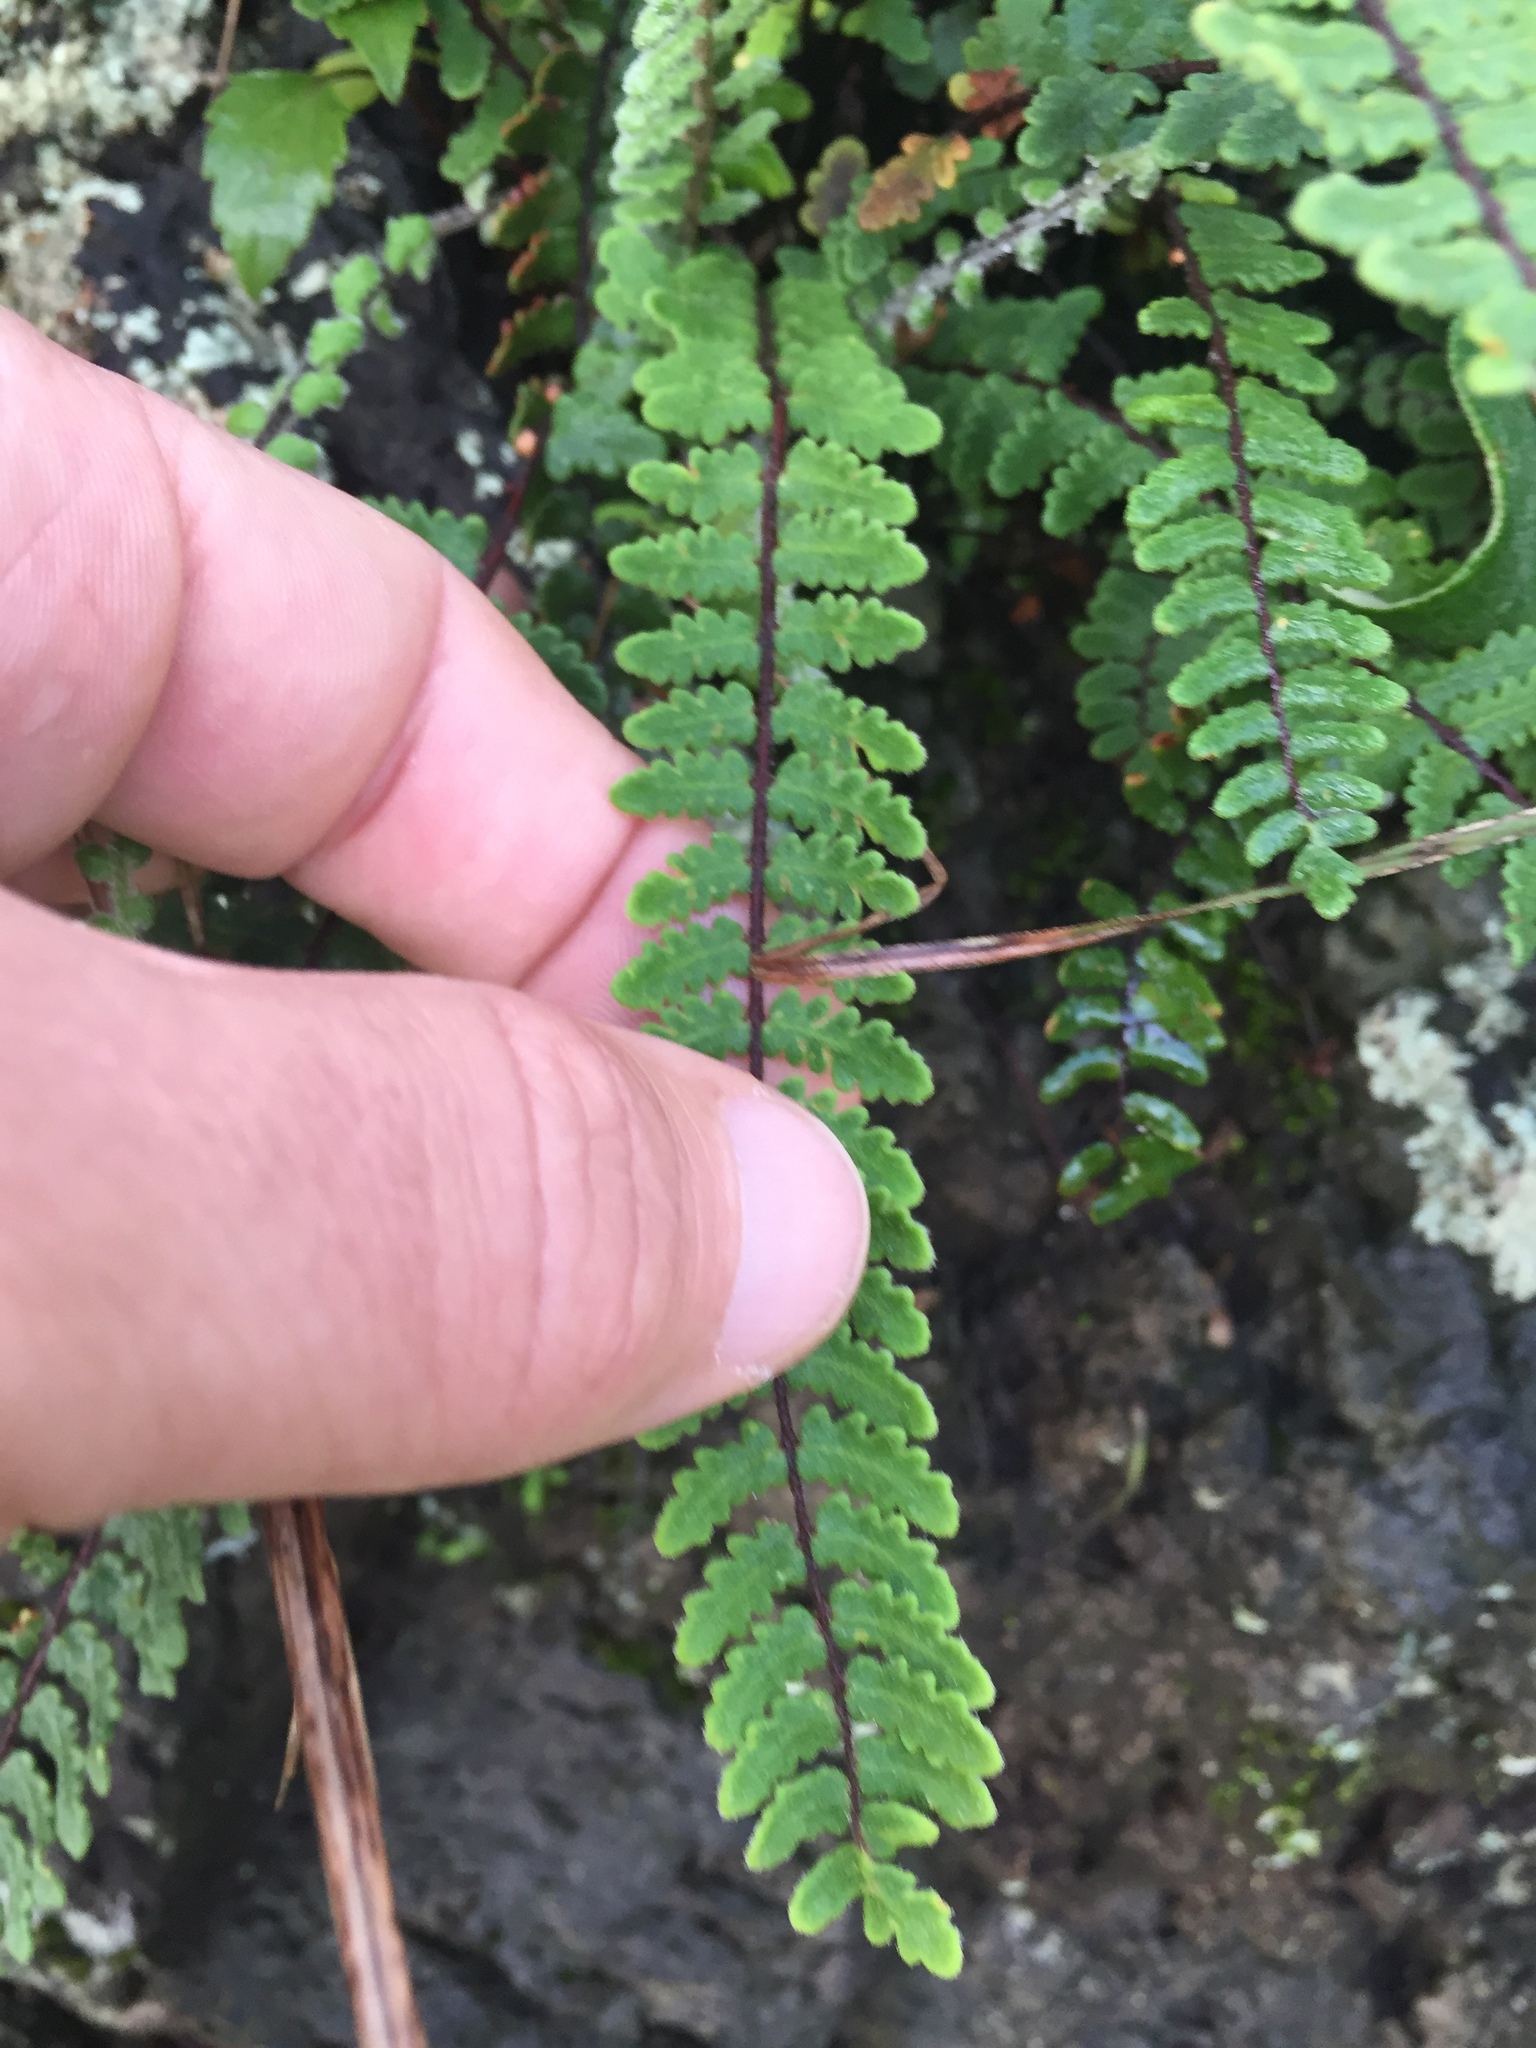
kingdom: Plantae
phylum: Tracheophyta
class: Polypodiopsida
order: Polypodiales
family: Pteridaceae
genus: Myriopteris
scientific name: Myriopteris aurea
